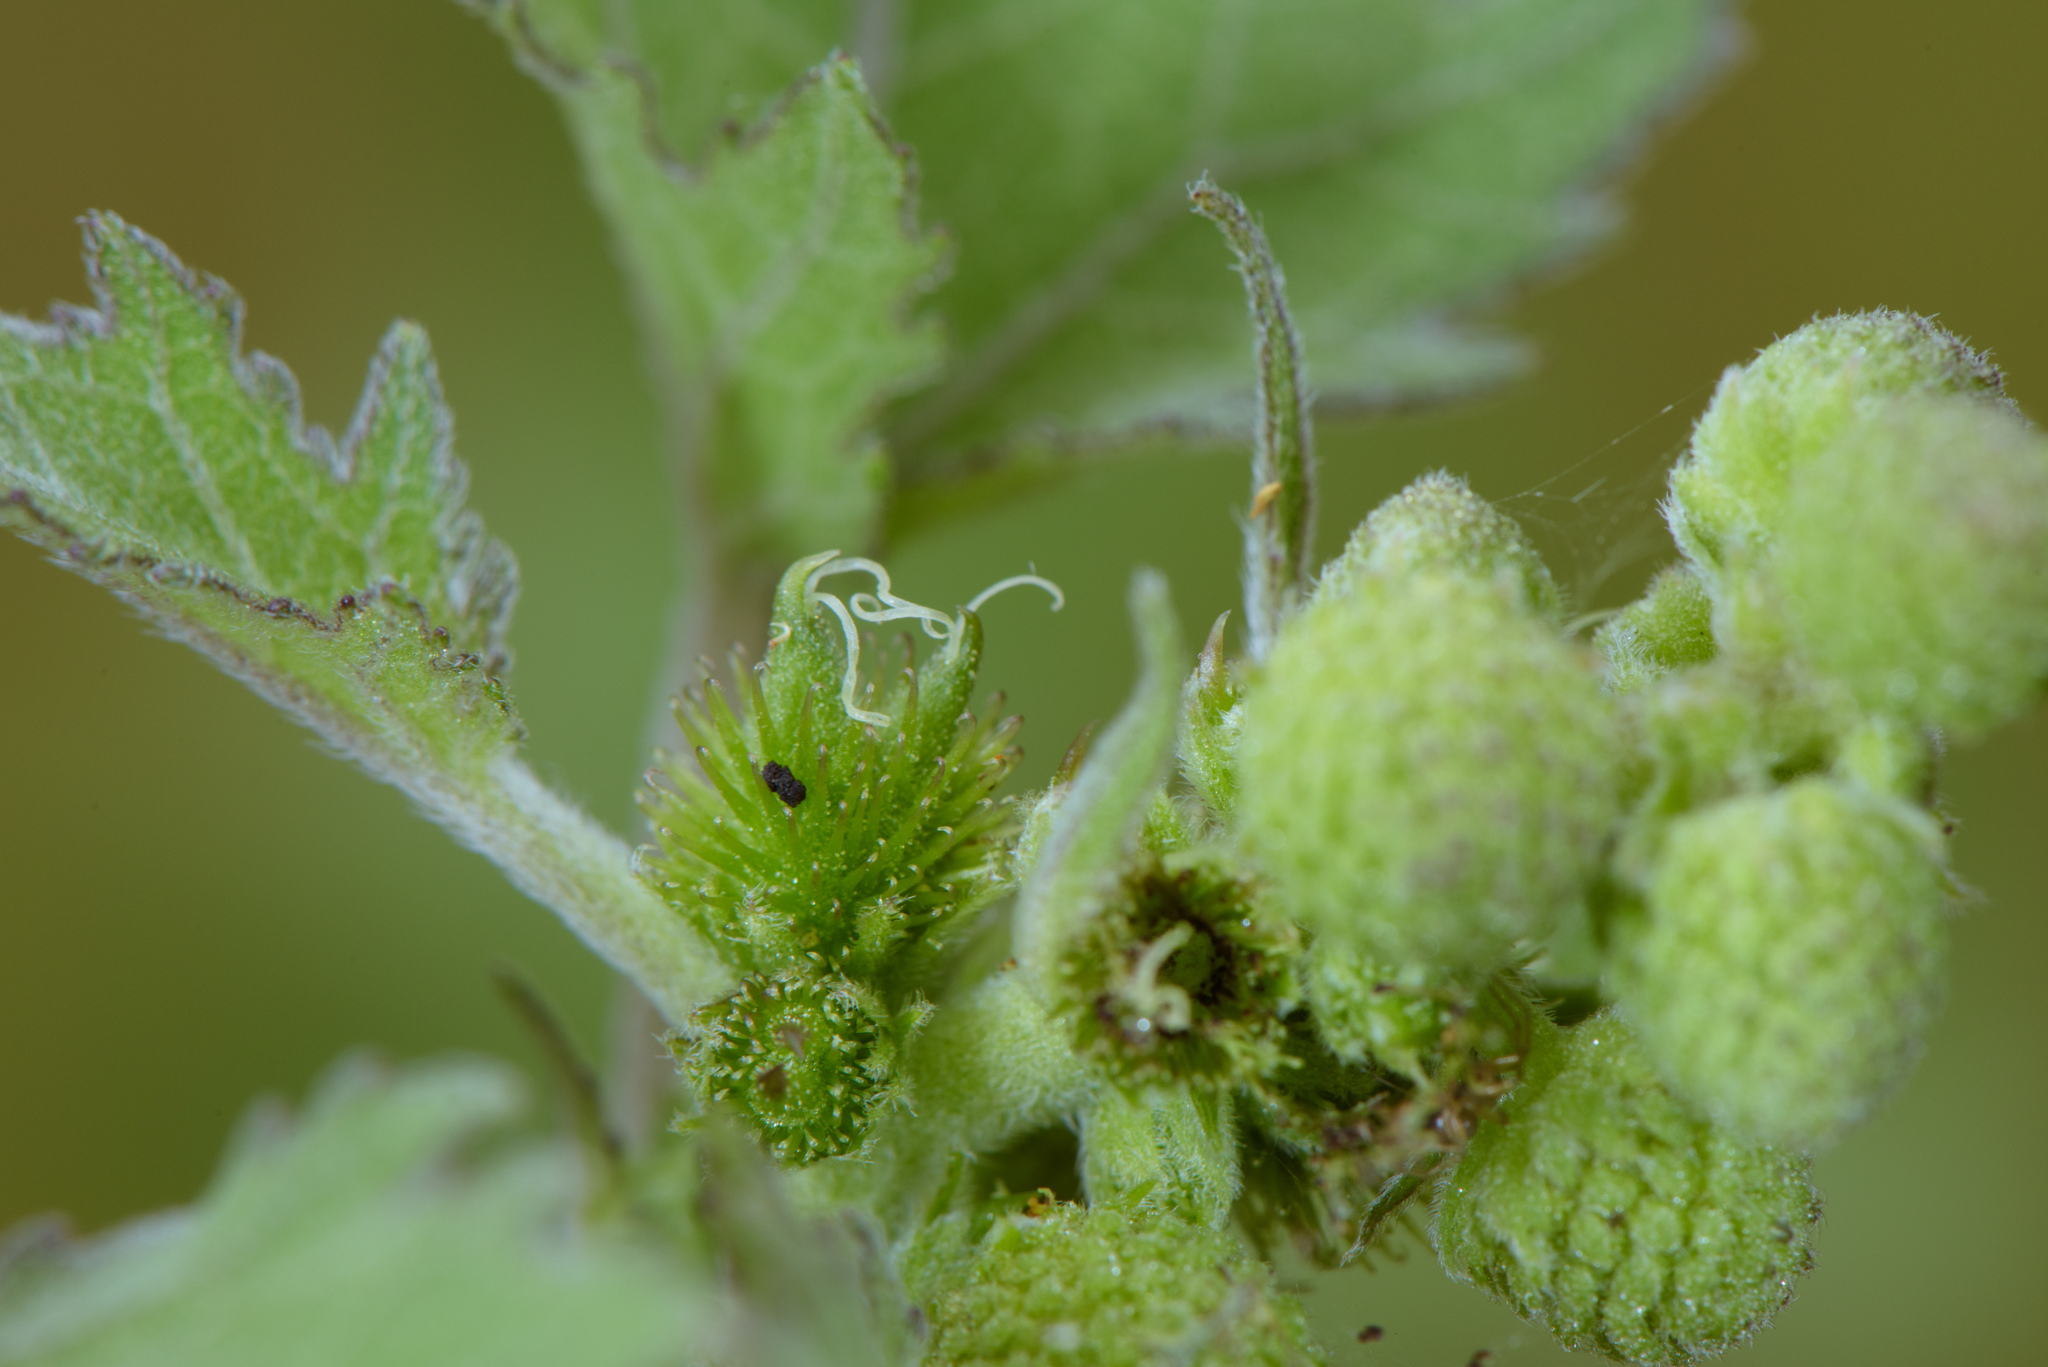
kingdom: Plantae
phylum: Tracheophyta
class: Magnoliopsida
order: Asterales
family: Asteraceae
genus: Xanthium
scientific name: Xanthium strumarium
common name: Rough cocklebur
